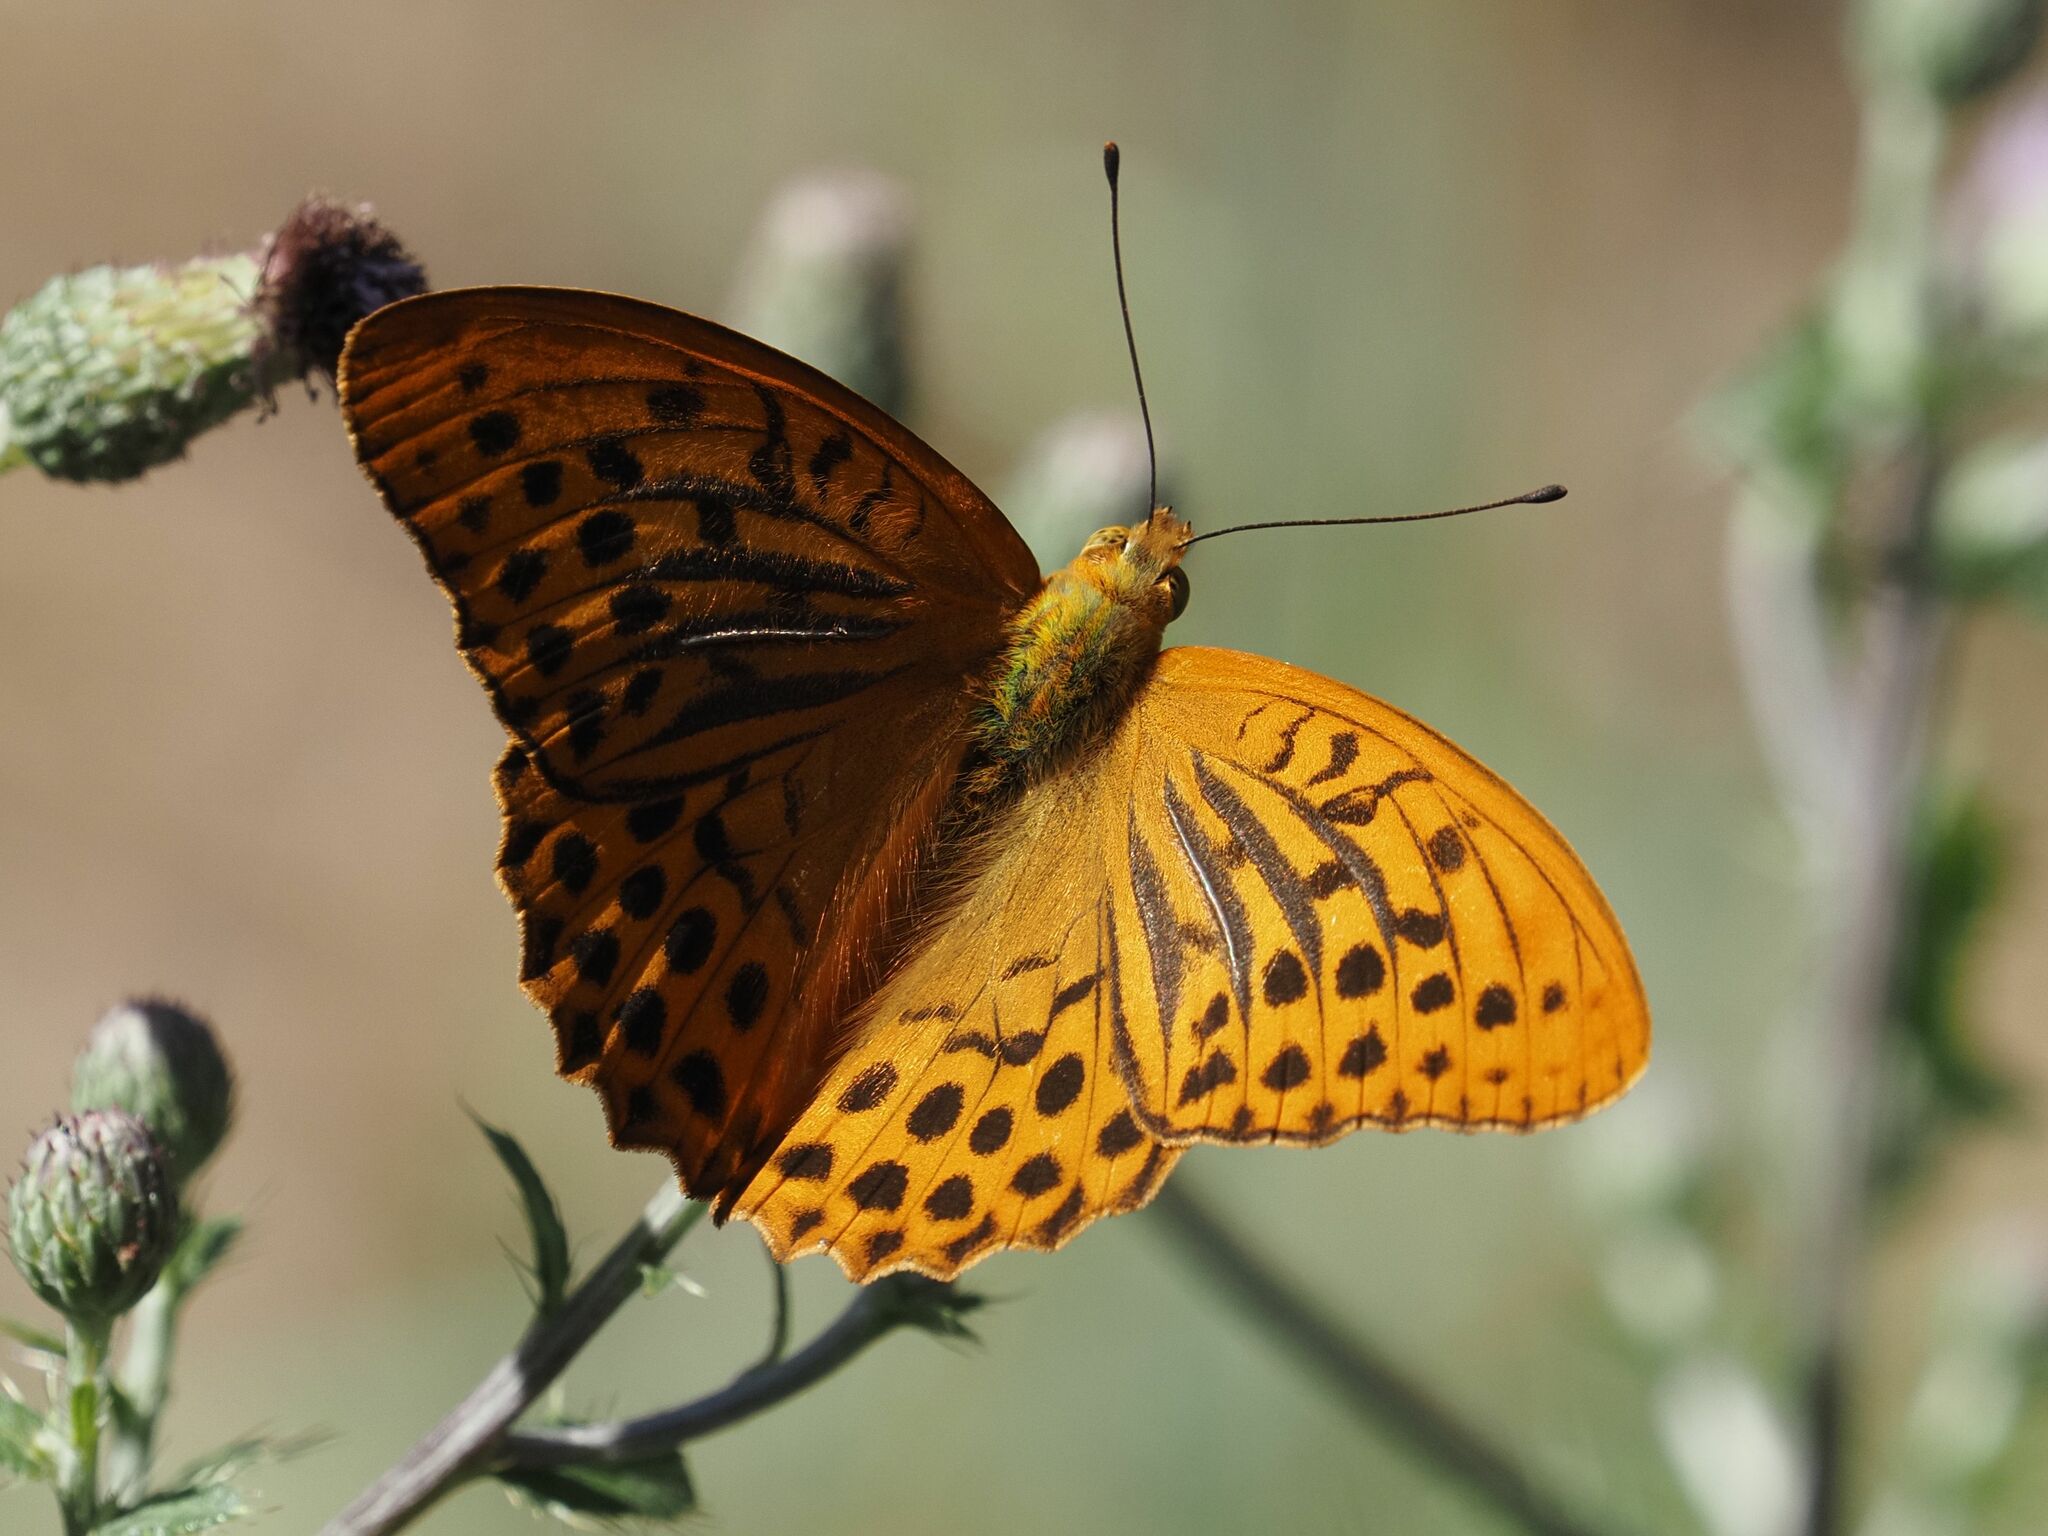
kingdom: Animalia
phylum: Arthropoda
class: Insecta
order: Lepidoptera
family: Nymphalidae
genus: Argynnis
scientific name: Argynnis paphia
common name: Silver-washed fritillary
